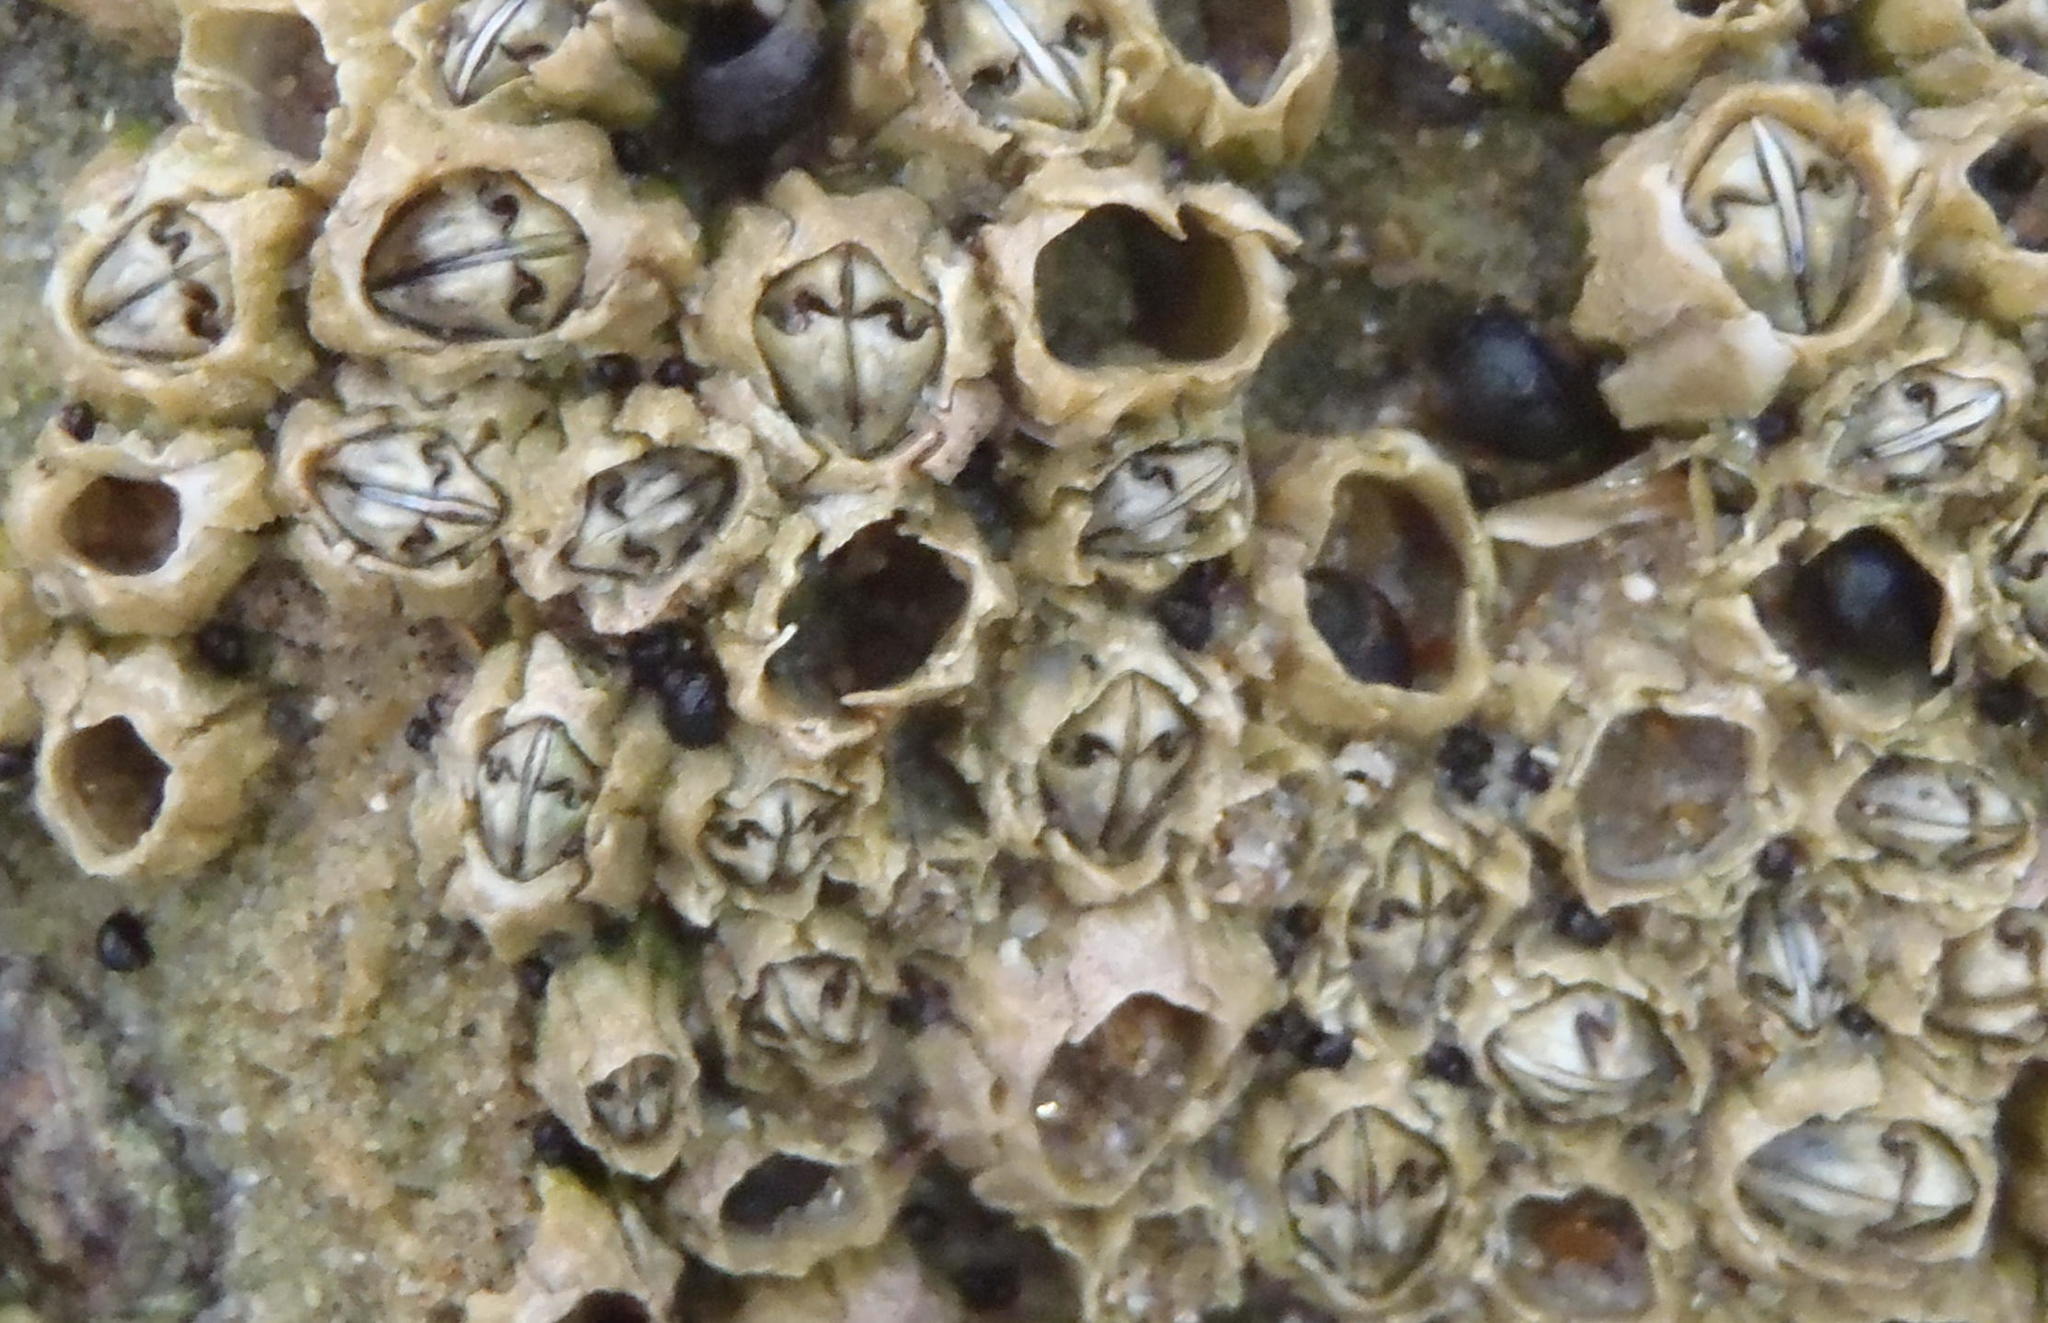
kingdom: Animalia
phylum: Arthropoda
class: Maxillopoda
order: Sessilia
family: Chthamalidae
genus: Chthamalus
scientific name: Chthamalus dentatus
